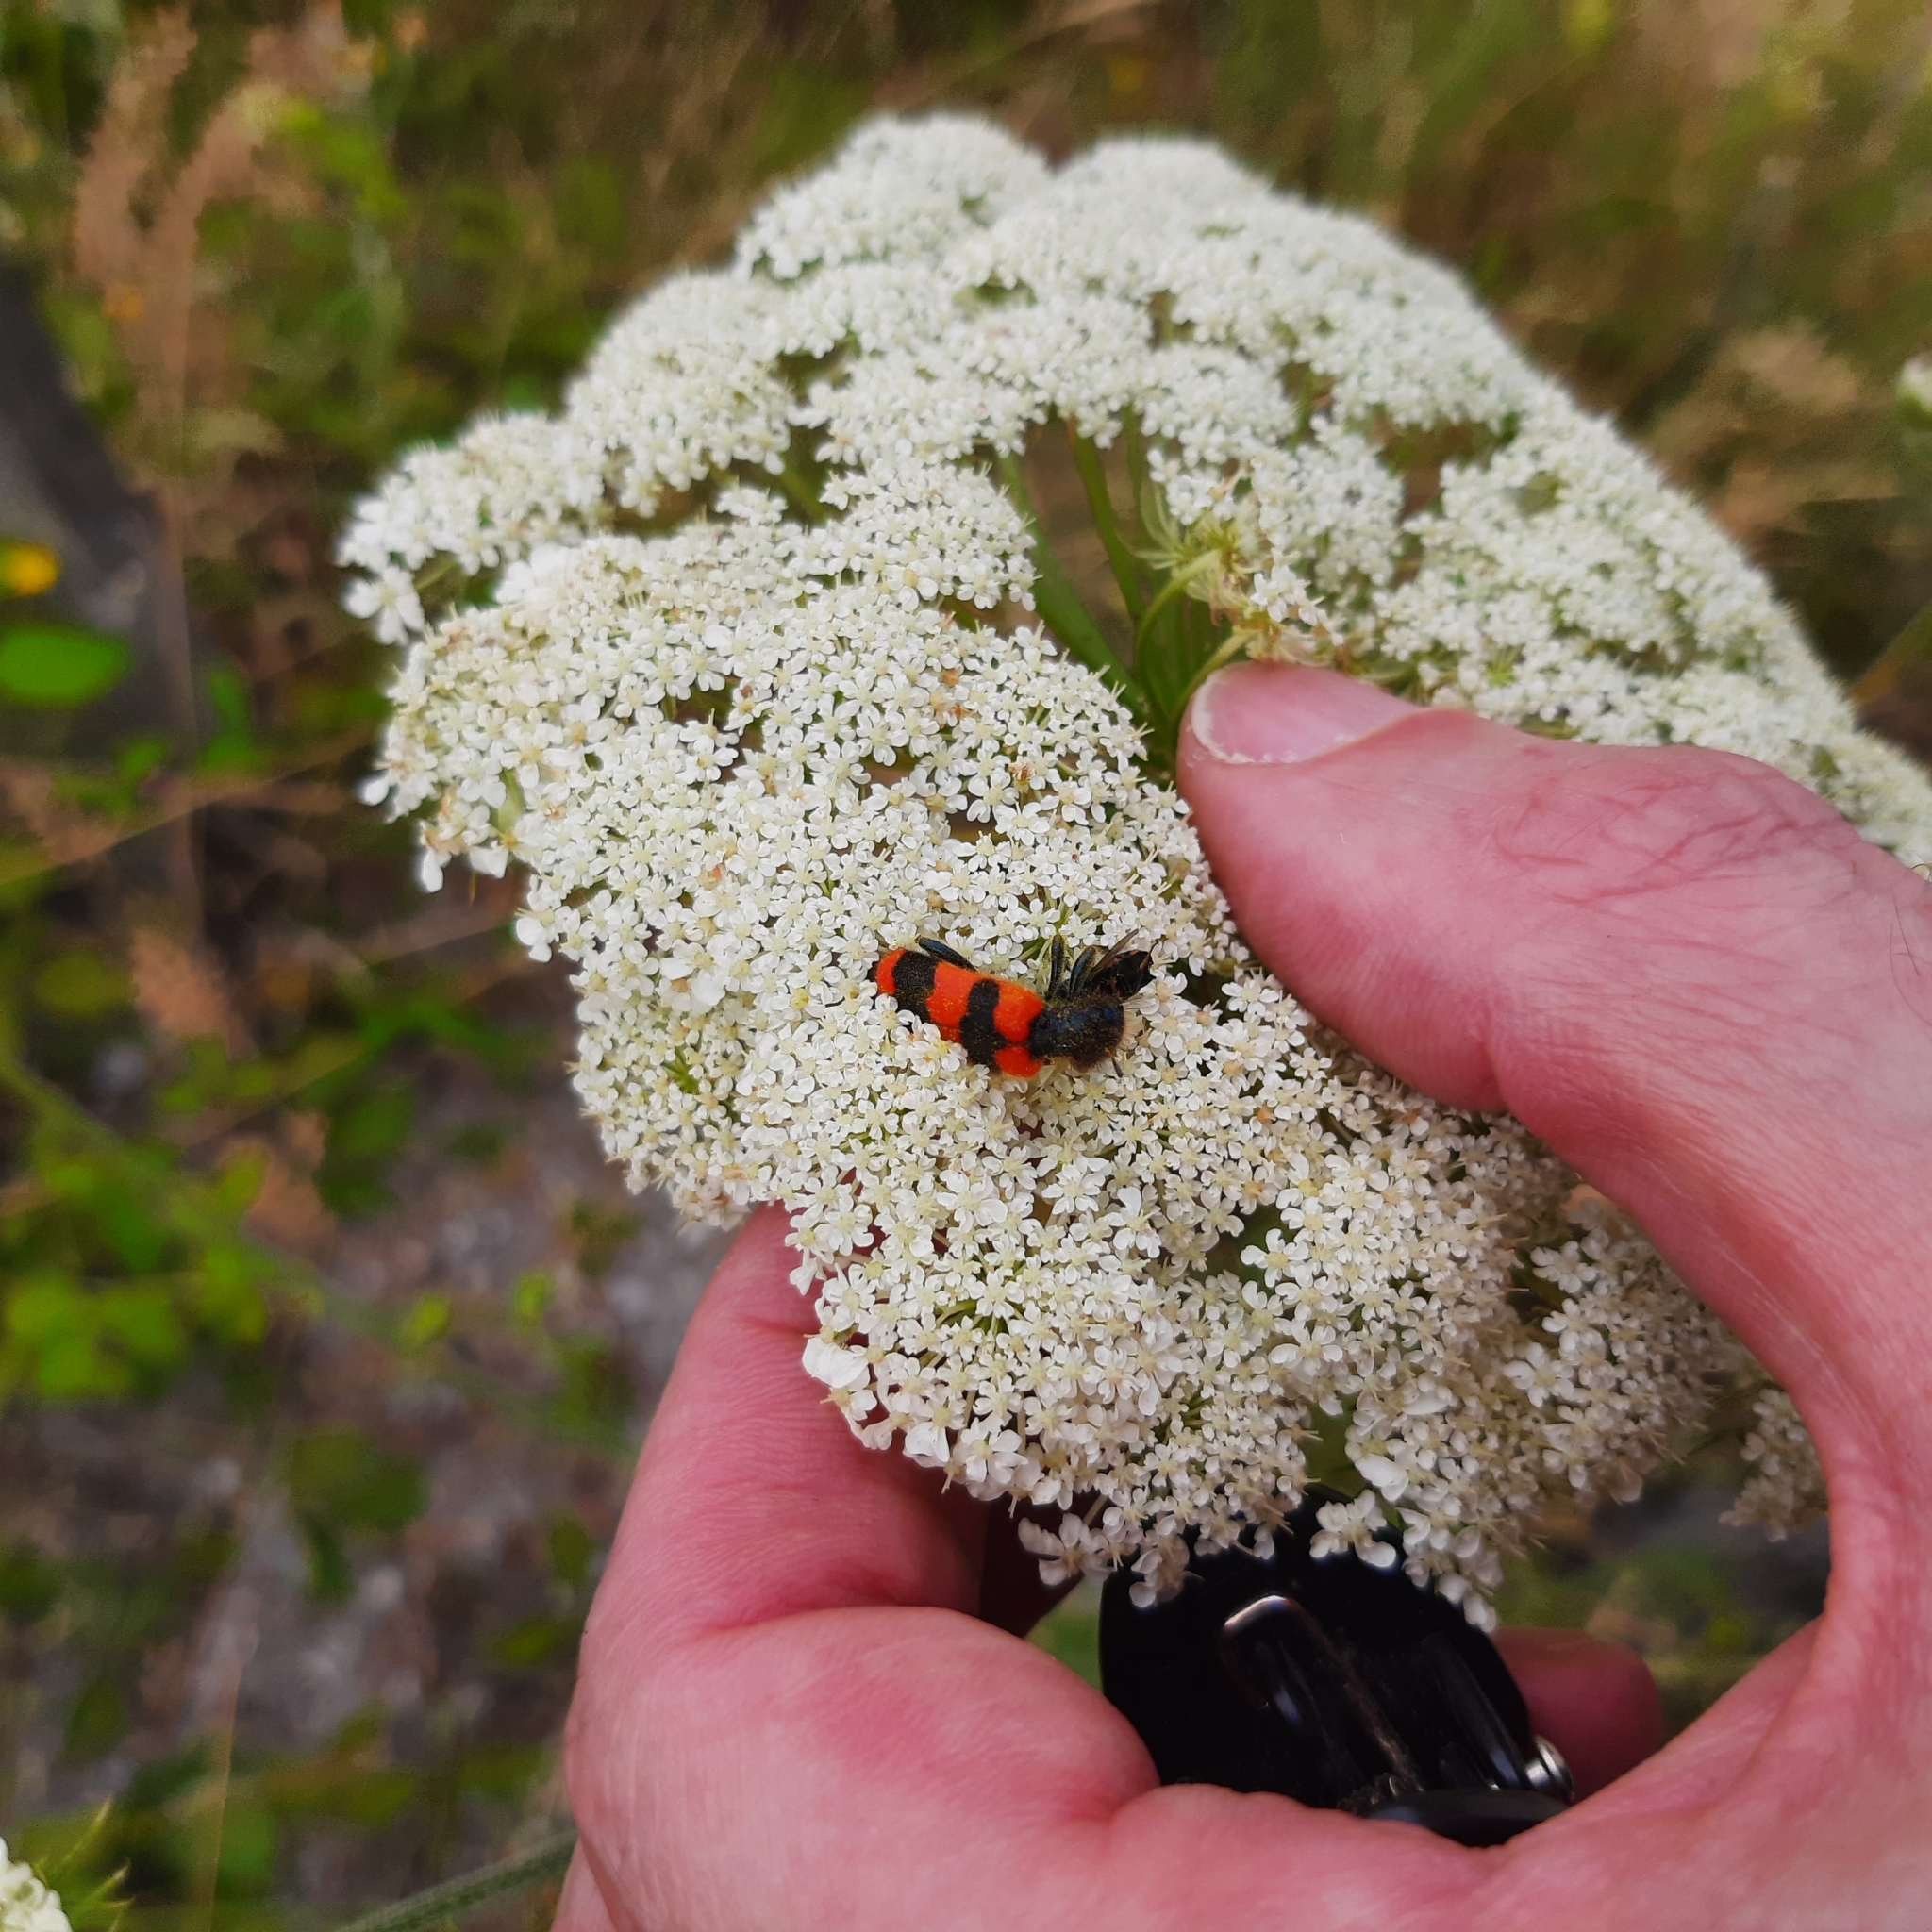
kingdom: Animalia
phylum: Arthropoda
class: Insecta
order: Coleoptera
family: Cleridae
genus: Trichodes
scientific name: Trichodes apiarius
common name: Bee-eating beetle
